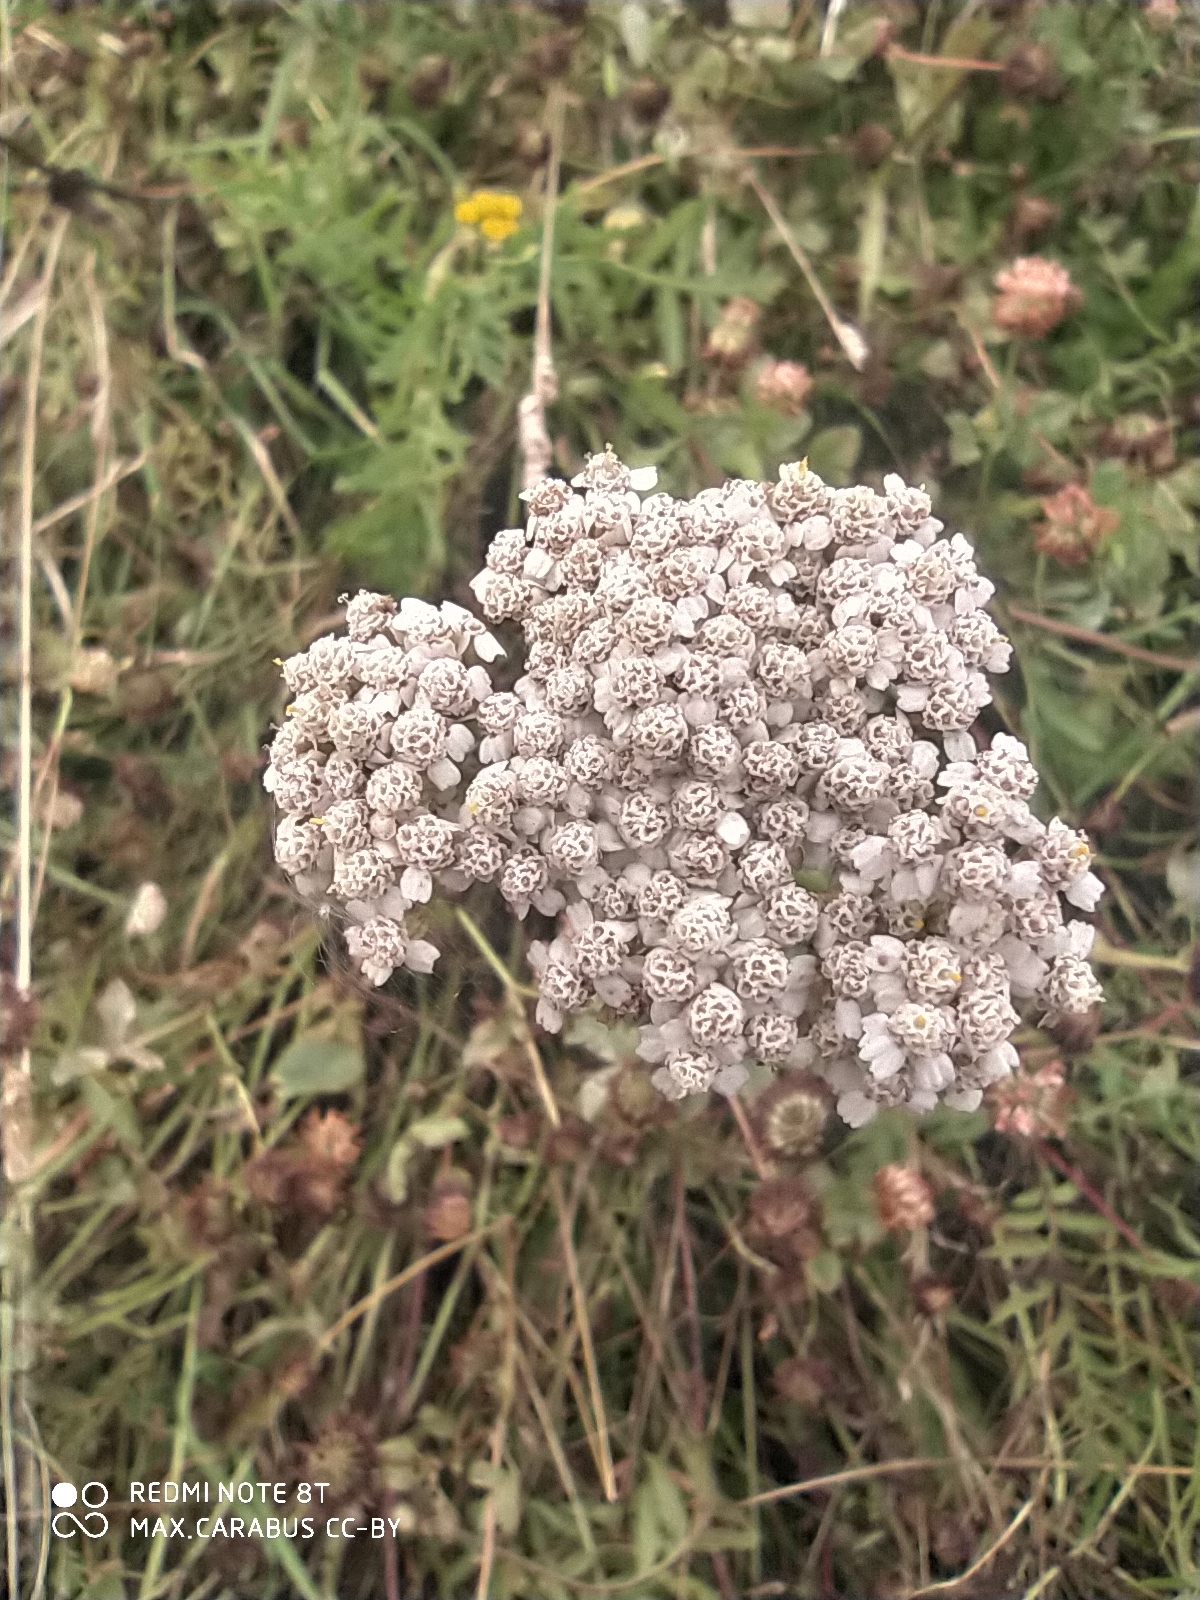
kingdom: Plantae
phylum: Tracheophyta
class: Magnoliopsida
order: Asterales
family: Asteraceae
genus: Achillea
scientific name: Achillea millefolium
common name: Yarrow
